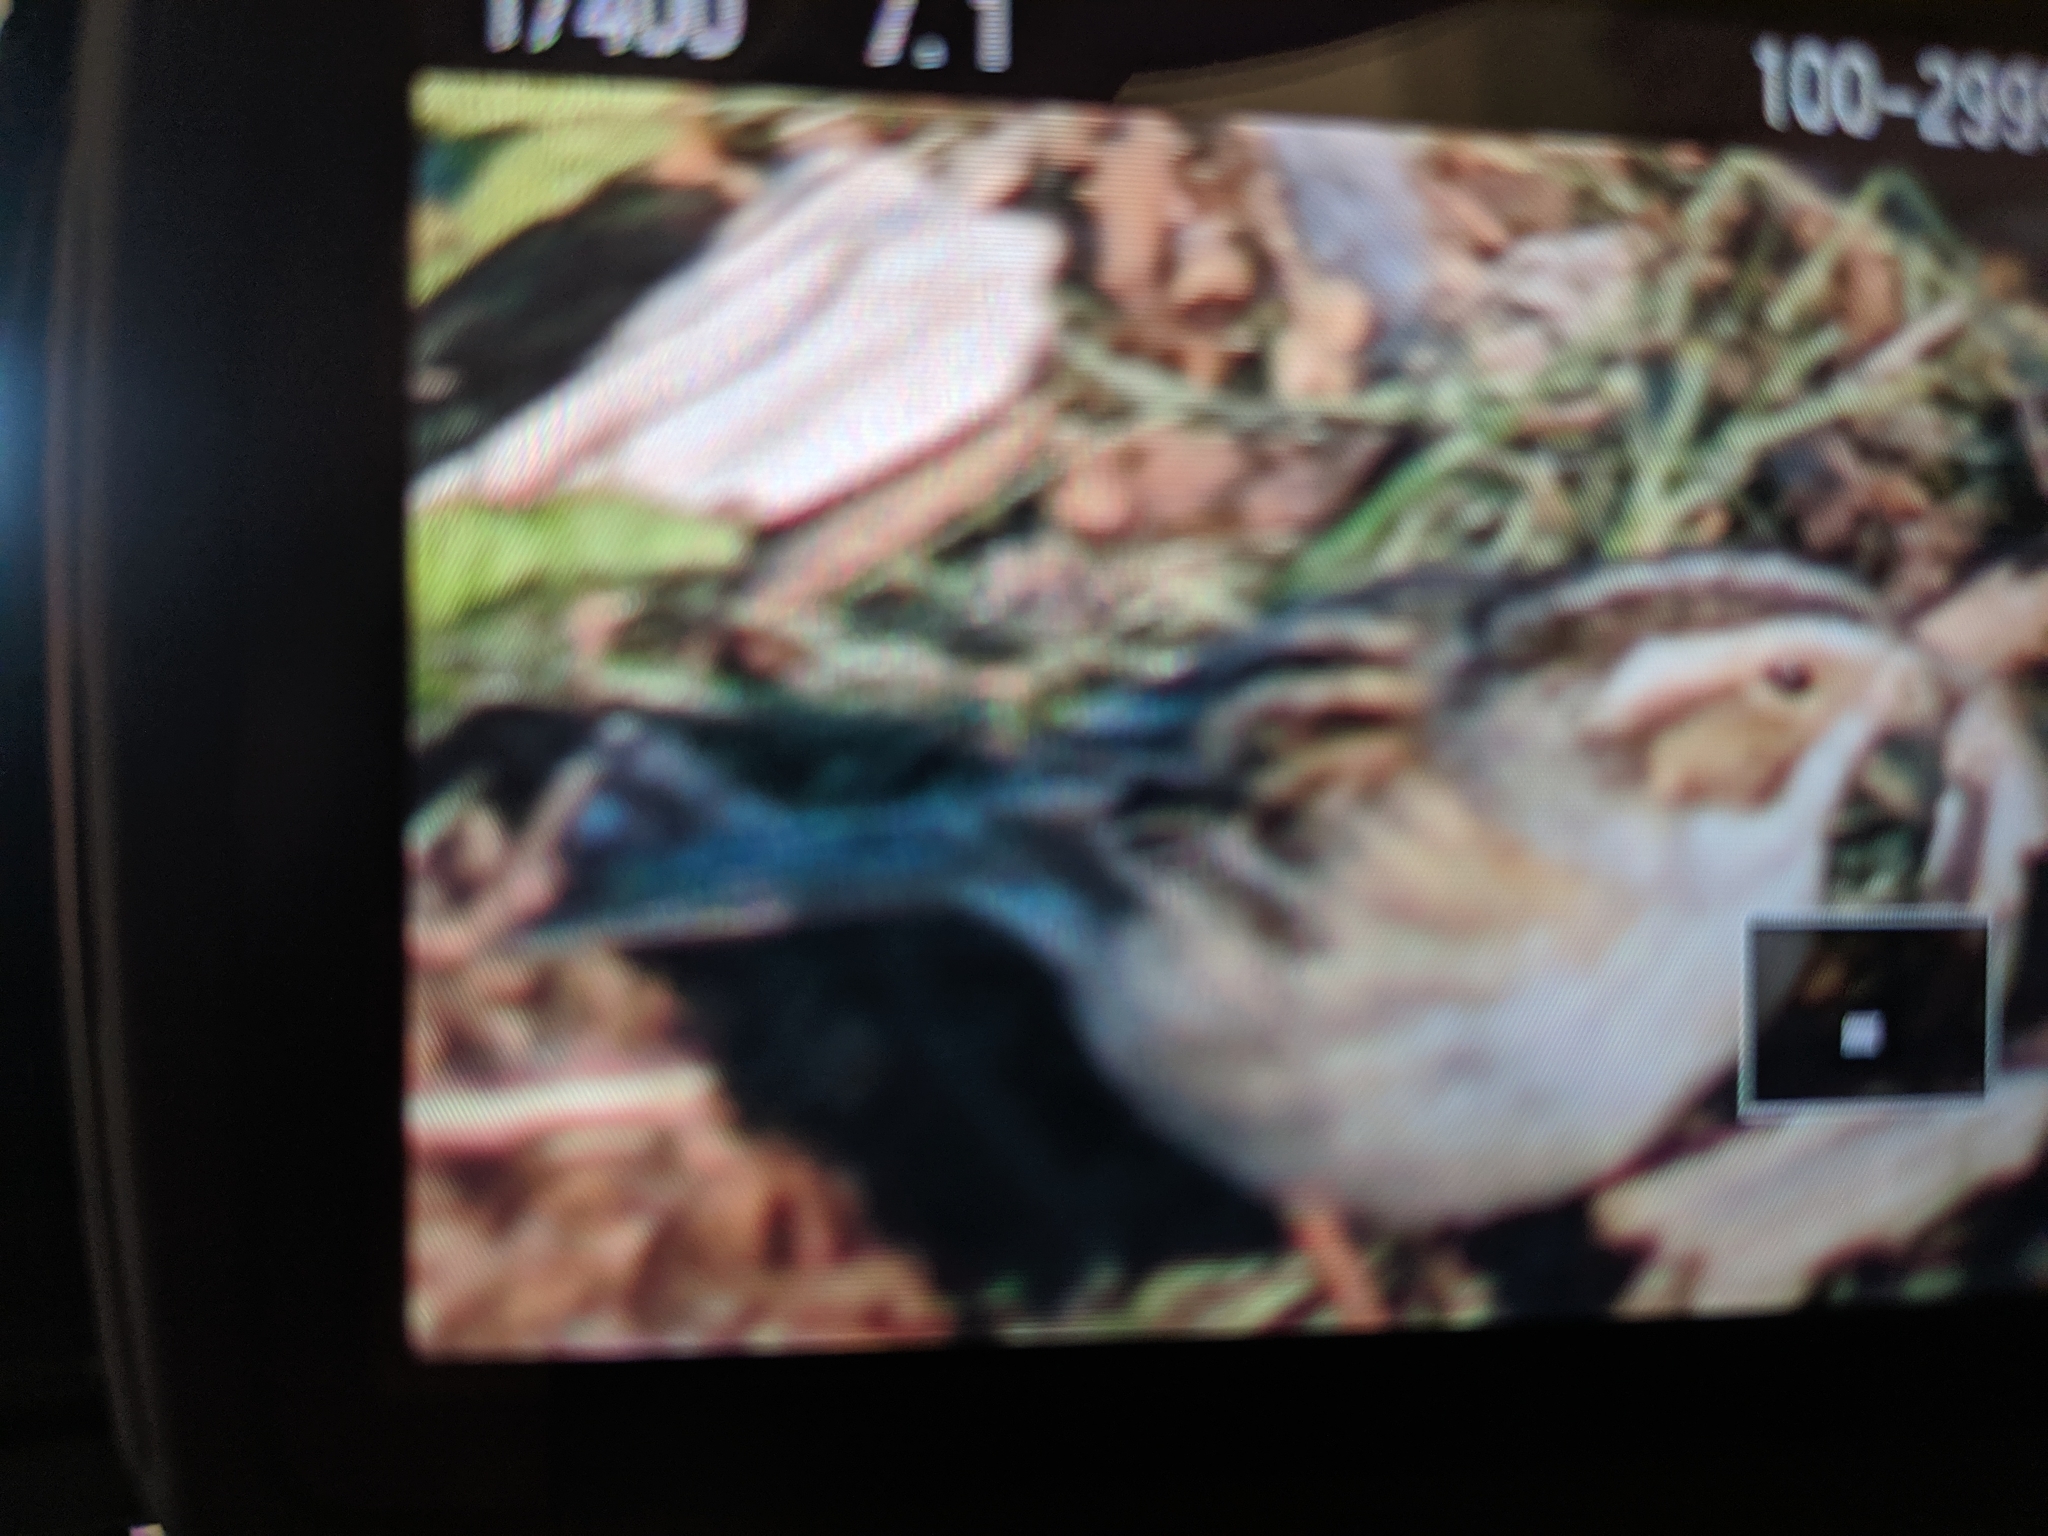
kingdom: Animalia
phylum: Chordata
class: Aves
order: Passeriformes
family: Passerellidae
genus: Spizella
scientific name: Spizella pallida
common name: Clay-colored sparrow
